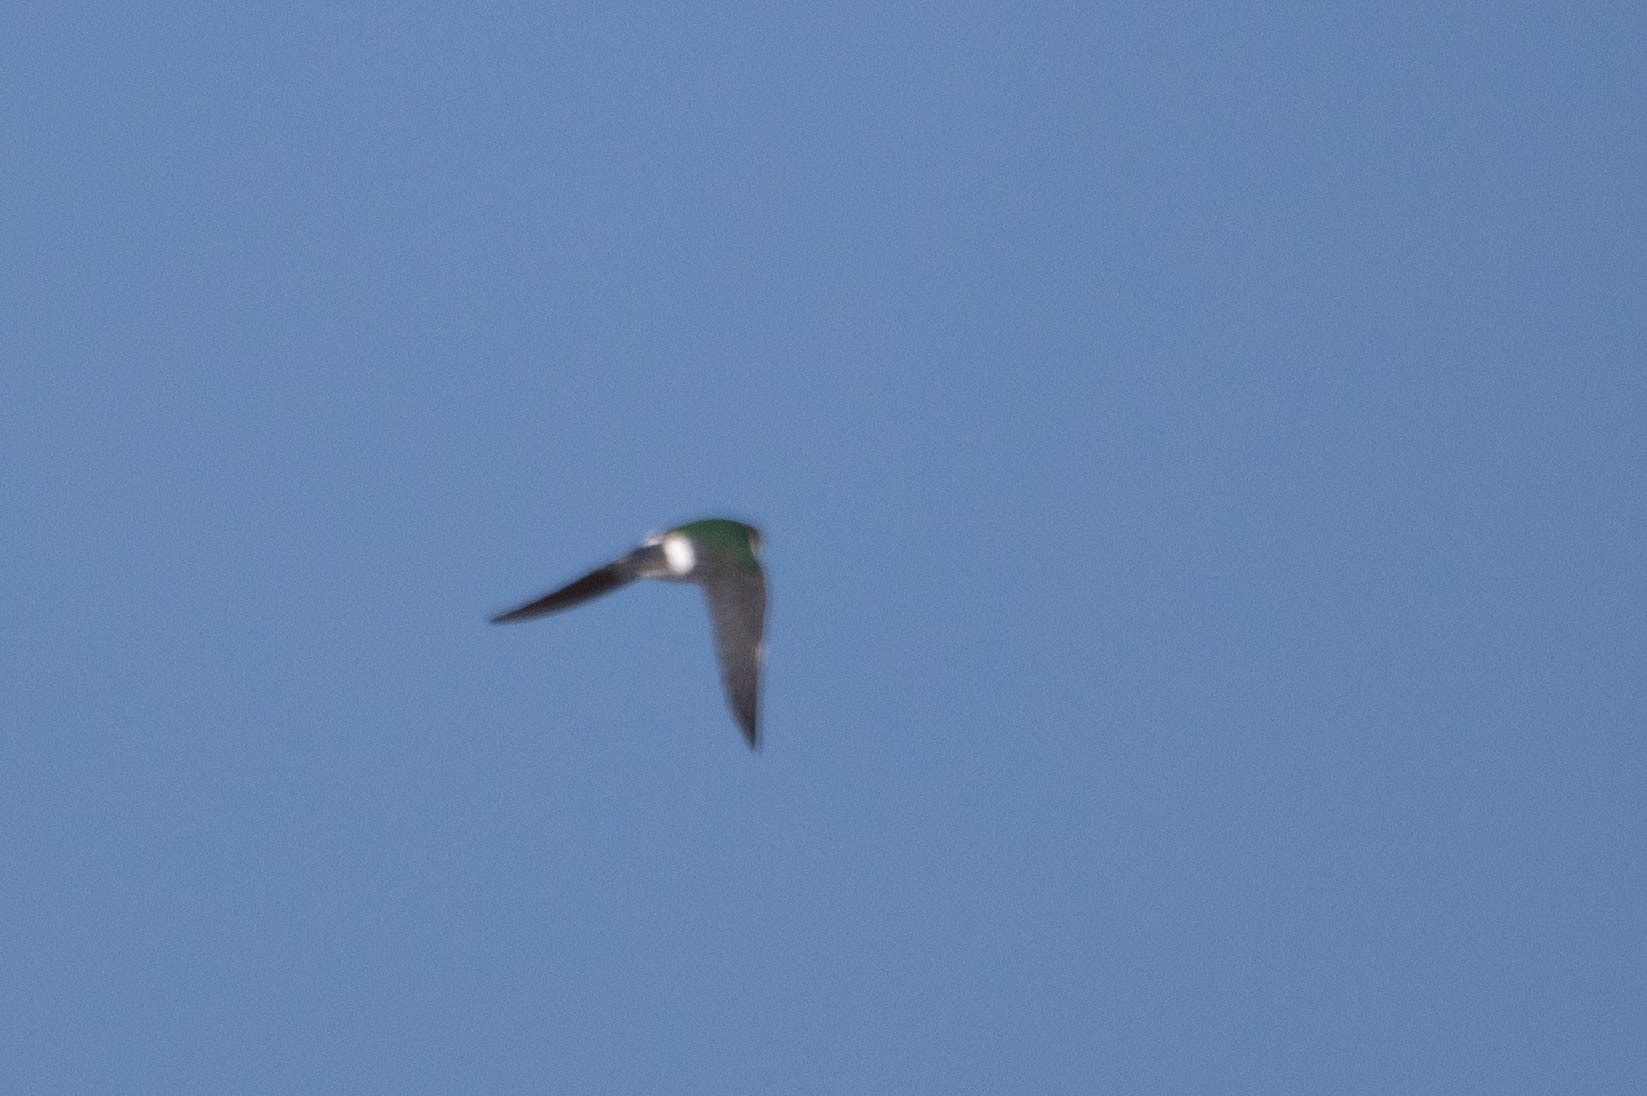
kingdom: Animalia
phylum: Chordata
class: Aves
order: Passeriformes
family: Hirundinidae
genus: Tachycineta
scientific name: Tachycineta thalassina
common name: Violet-green swallow
